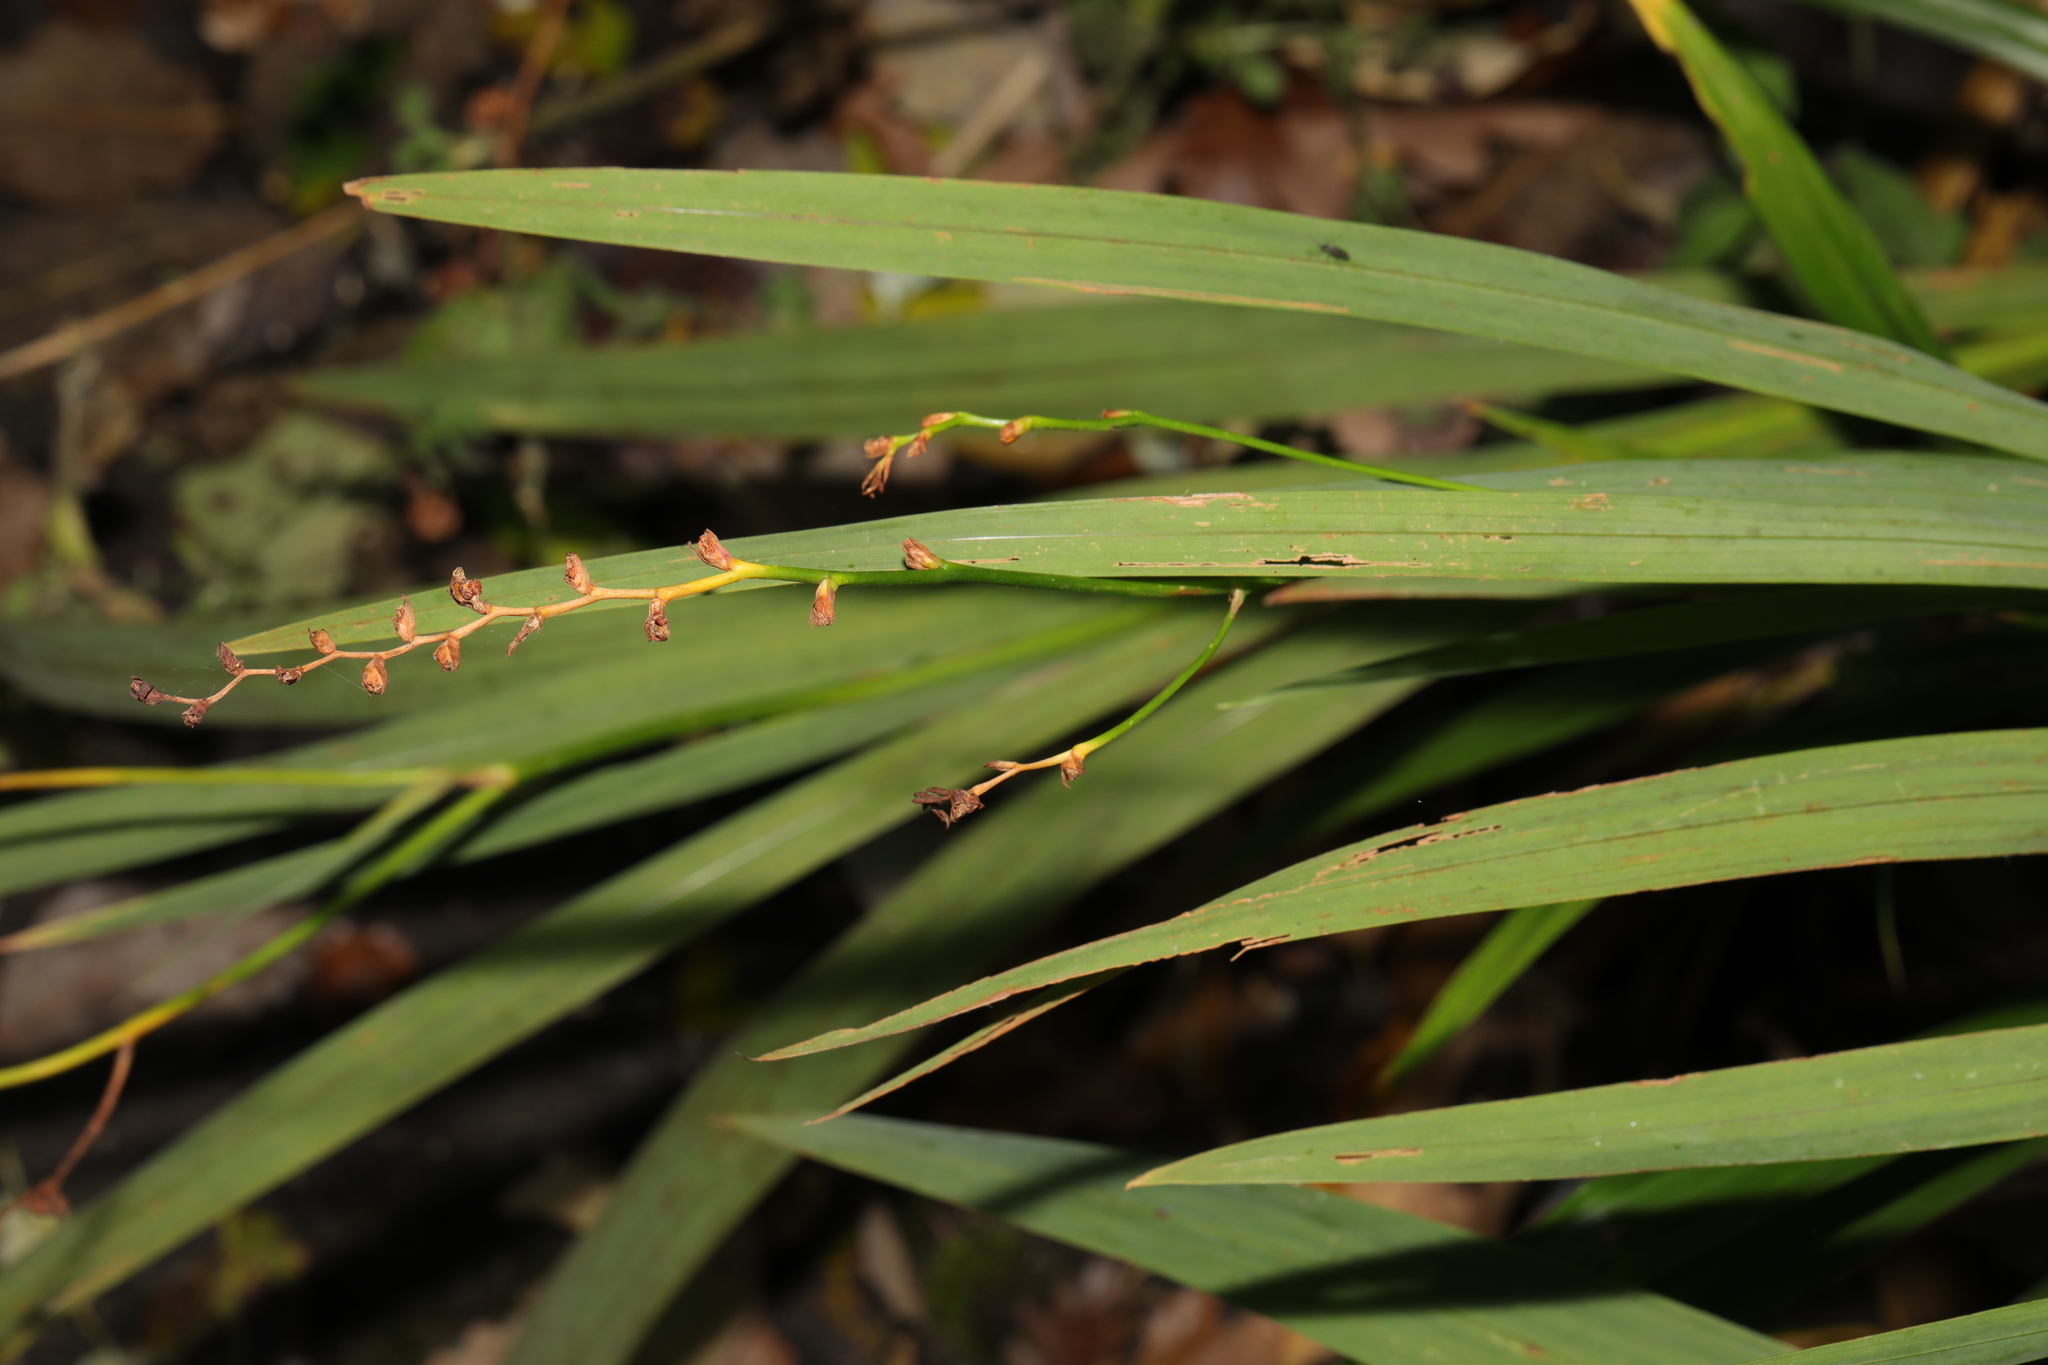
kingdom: Plantae
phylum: Tracheophyta
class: Liliopsida
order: Asparagales
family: Iridaceae
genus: Crocosmia
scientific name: Crocosmia crocosmiiflora
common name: Montbretia
